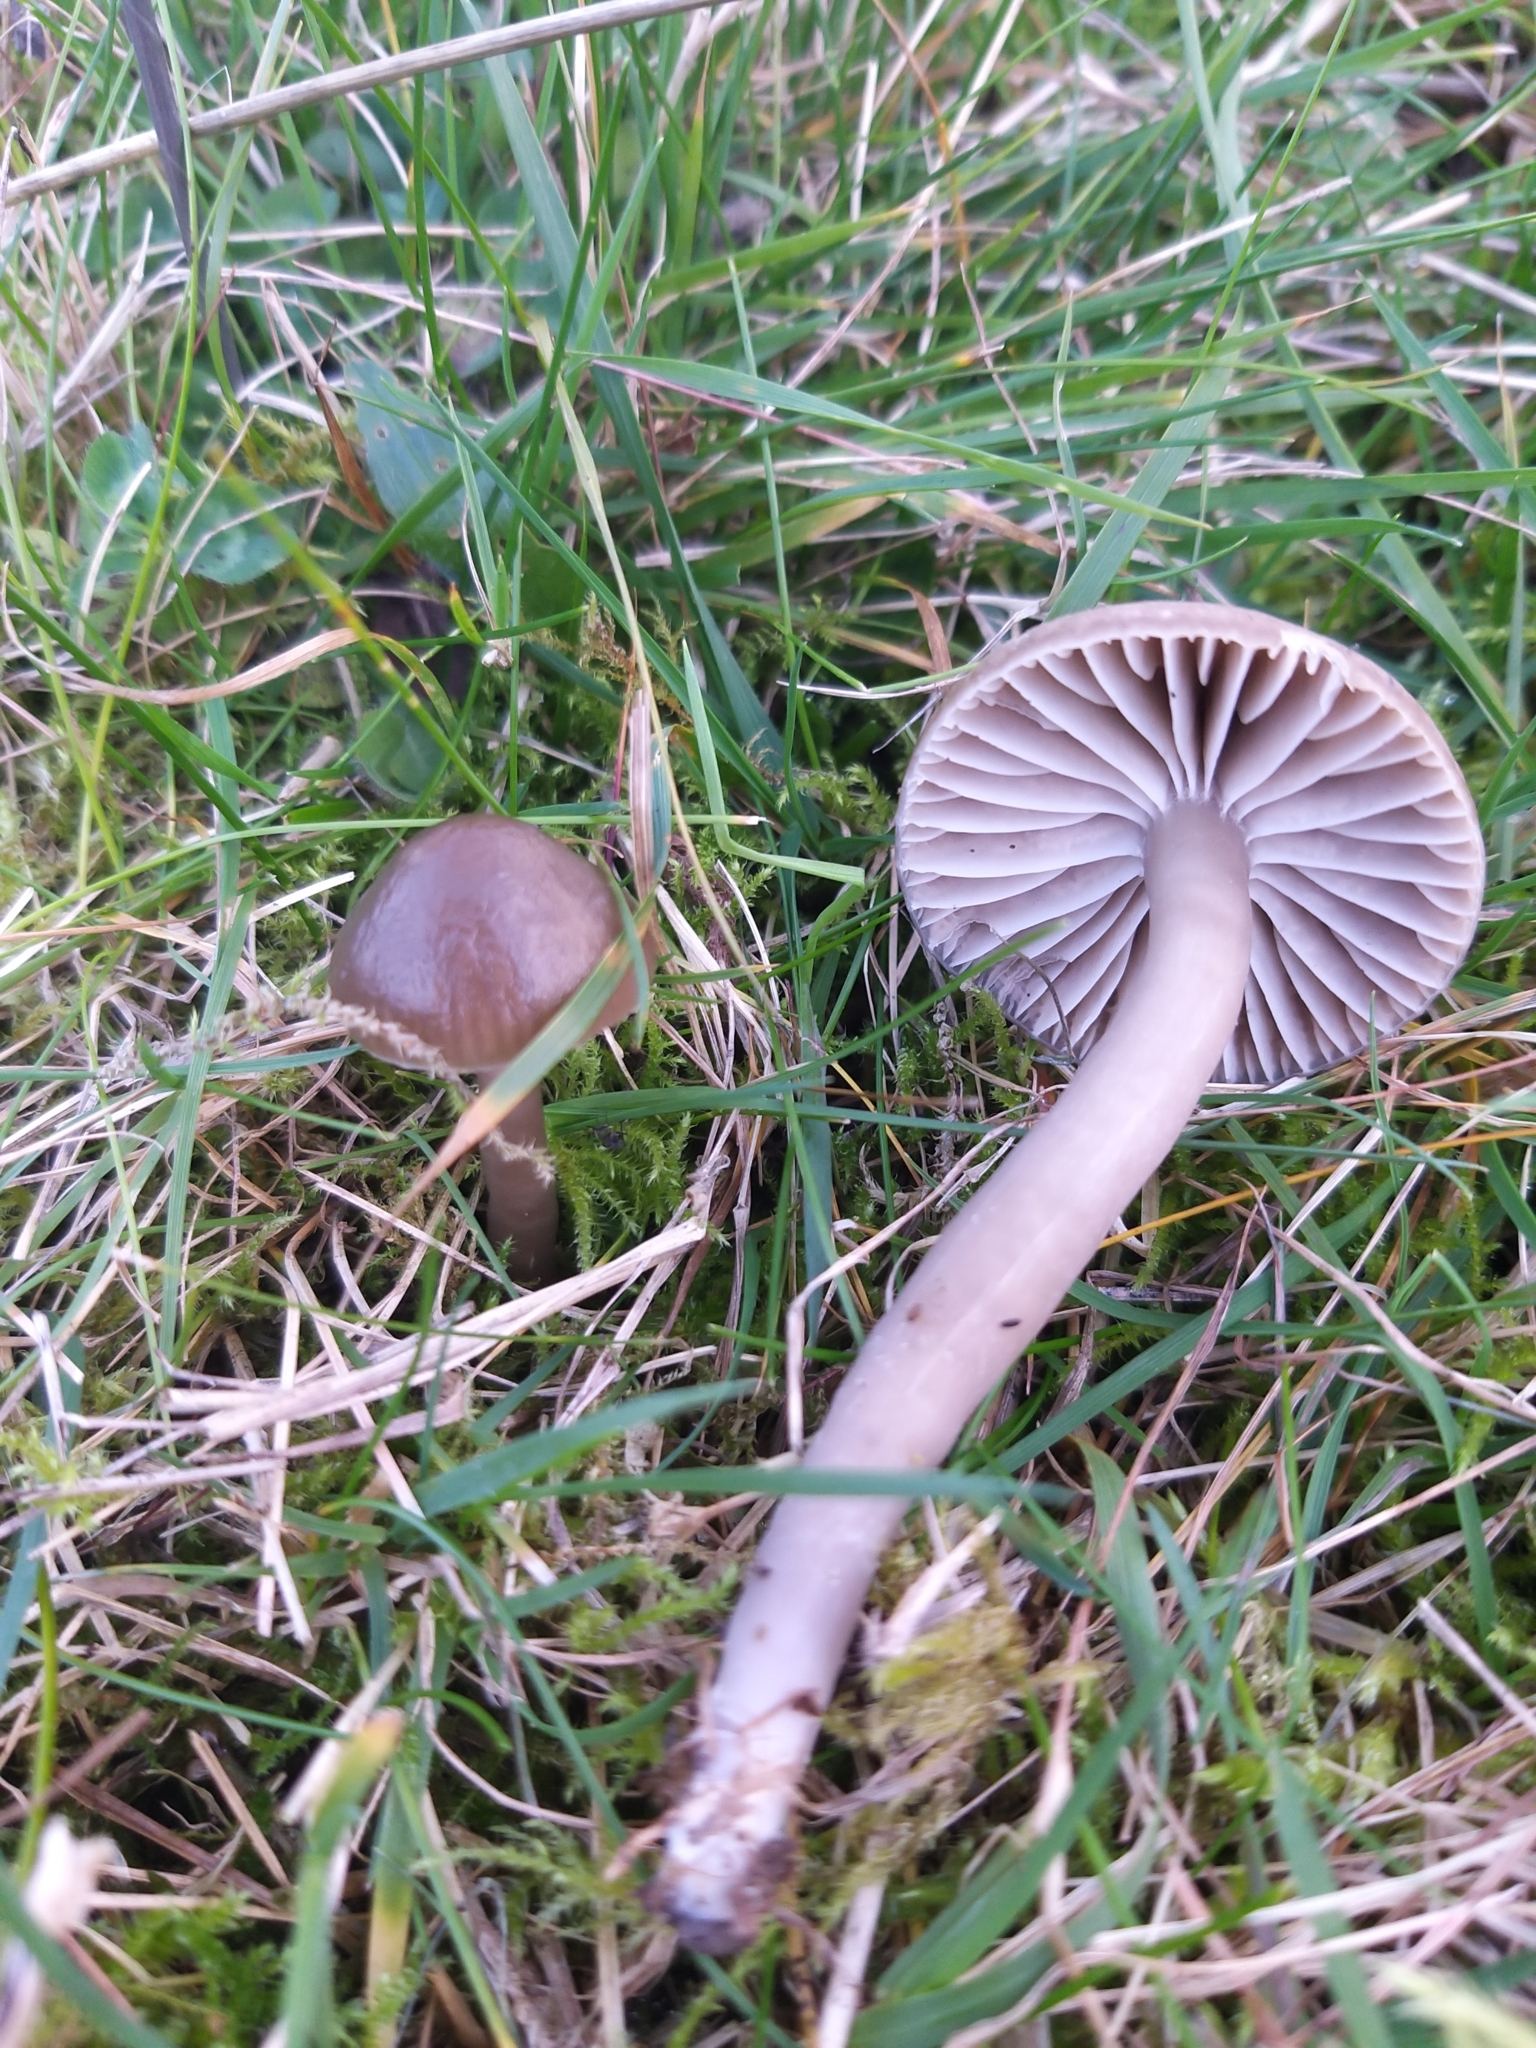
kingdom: Fungi
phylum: Basidiomycota
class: Agaricomycetes
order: Agaricales
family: Hygrophoraceae
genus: Gliophorus
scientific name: Gliophorus irrigatus
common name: Slimy waxcap
